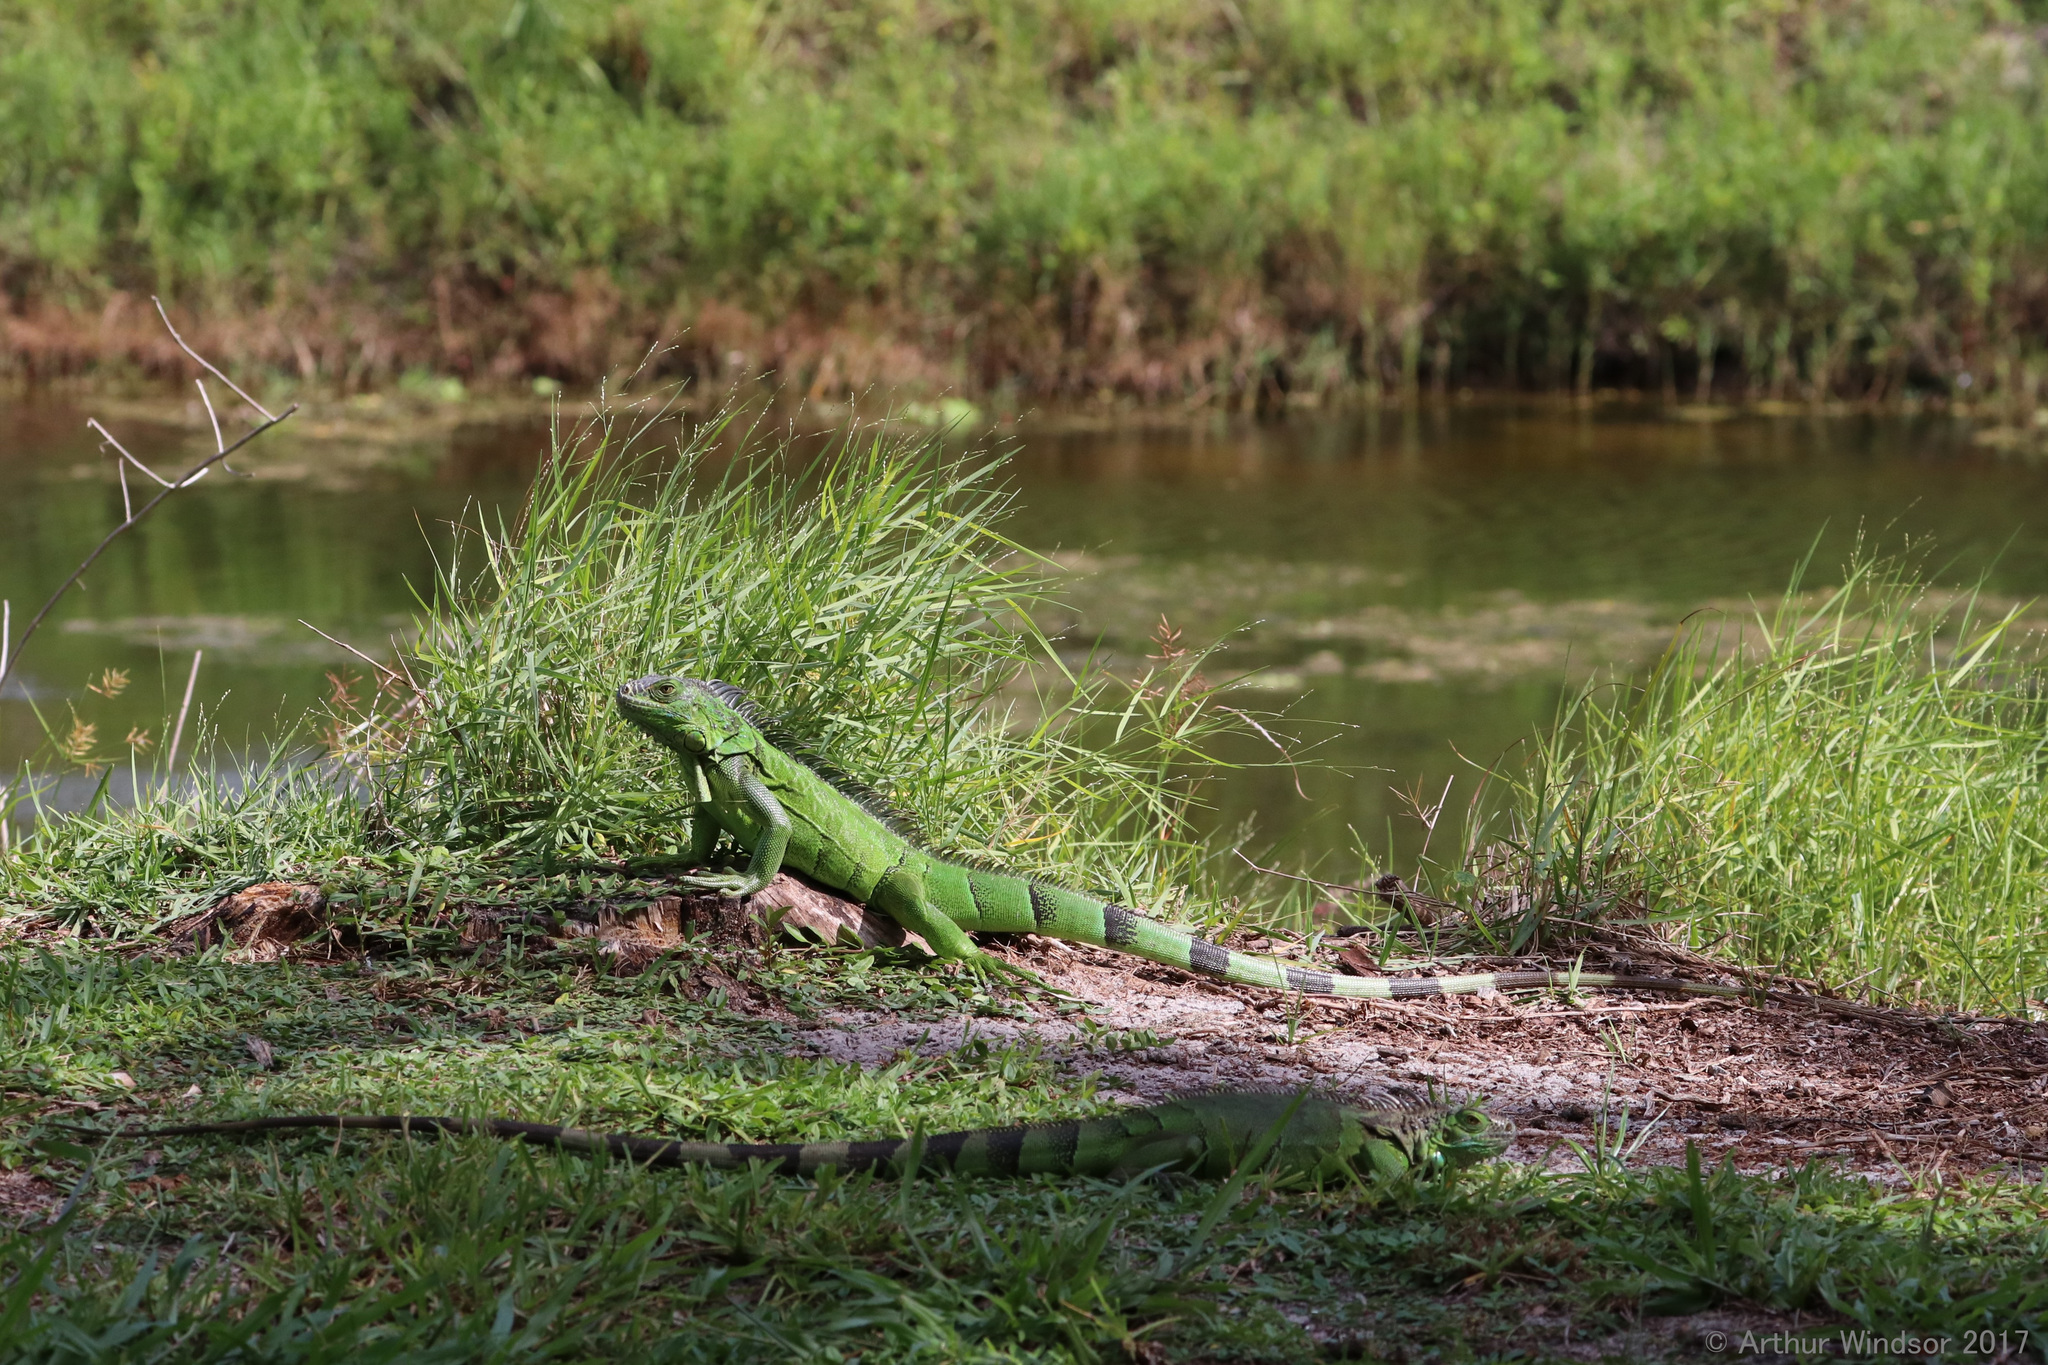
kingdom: Animalia
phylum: Chordata
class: Squamata
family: Iguanidae
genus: Iguana
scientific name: Iguana iguana
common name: Green iguana
